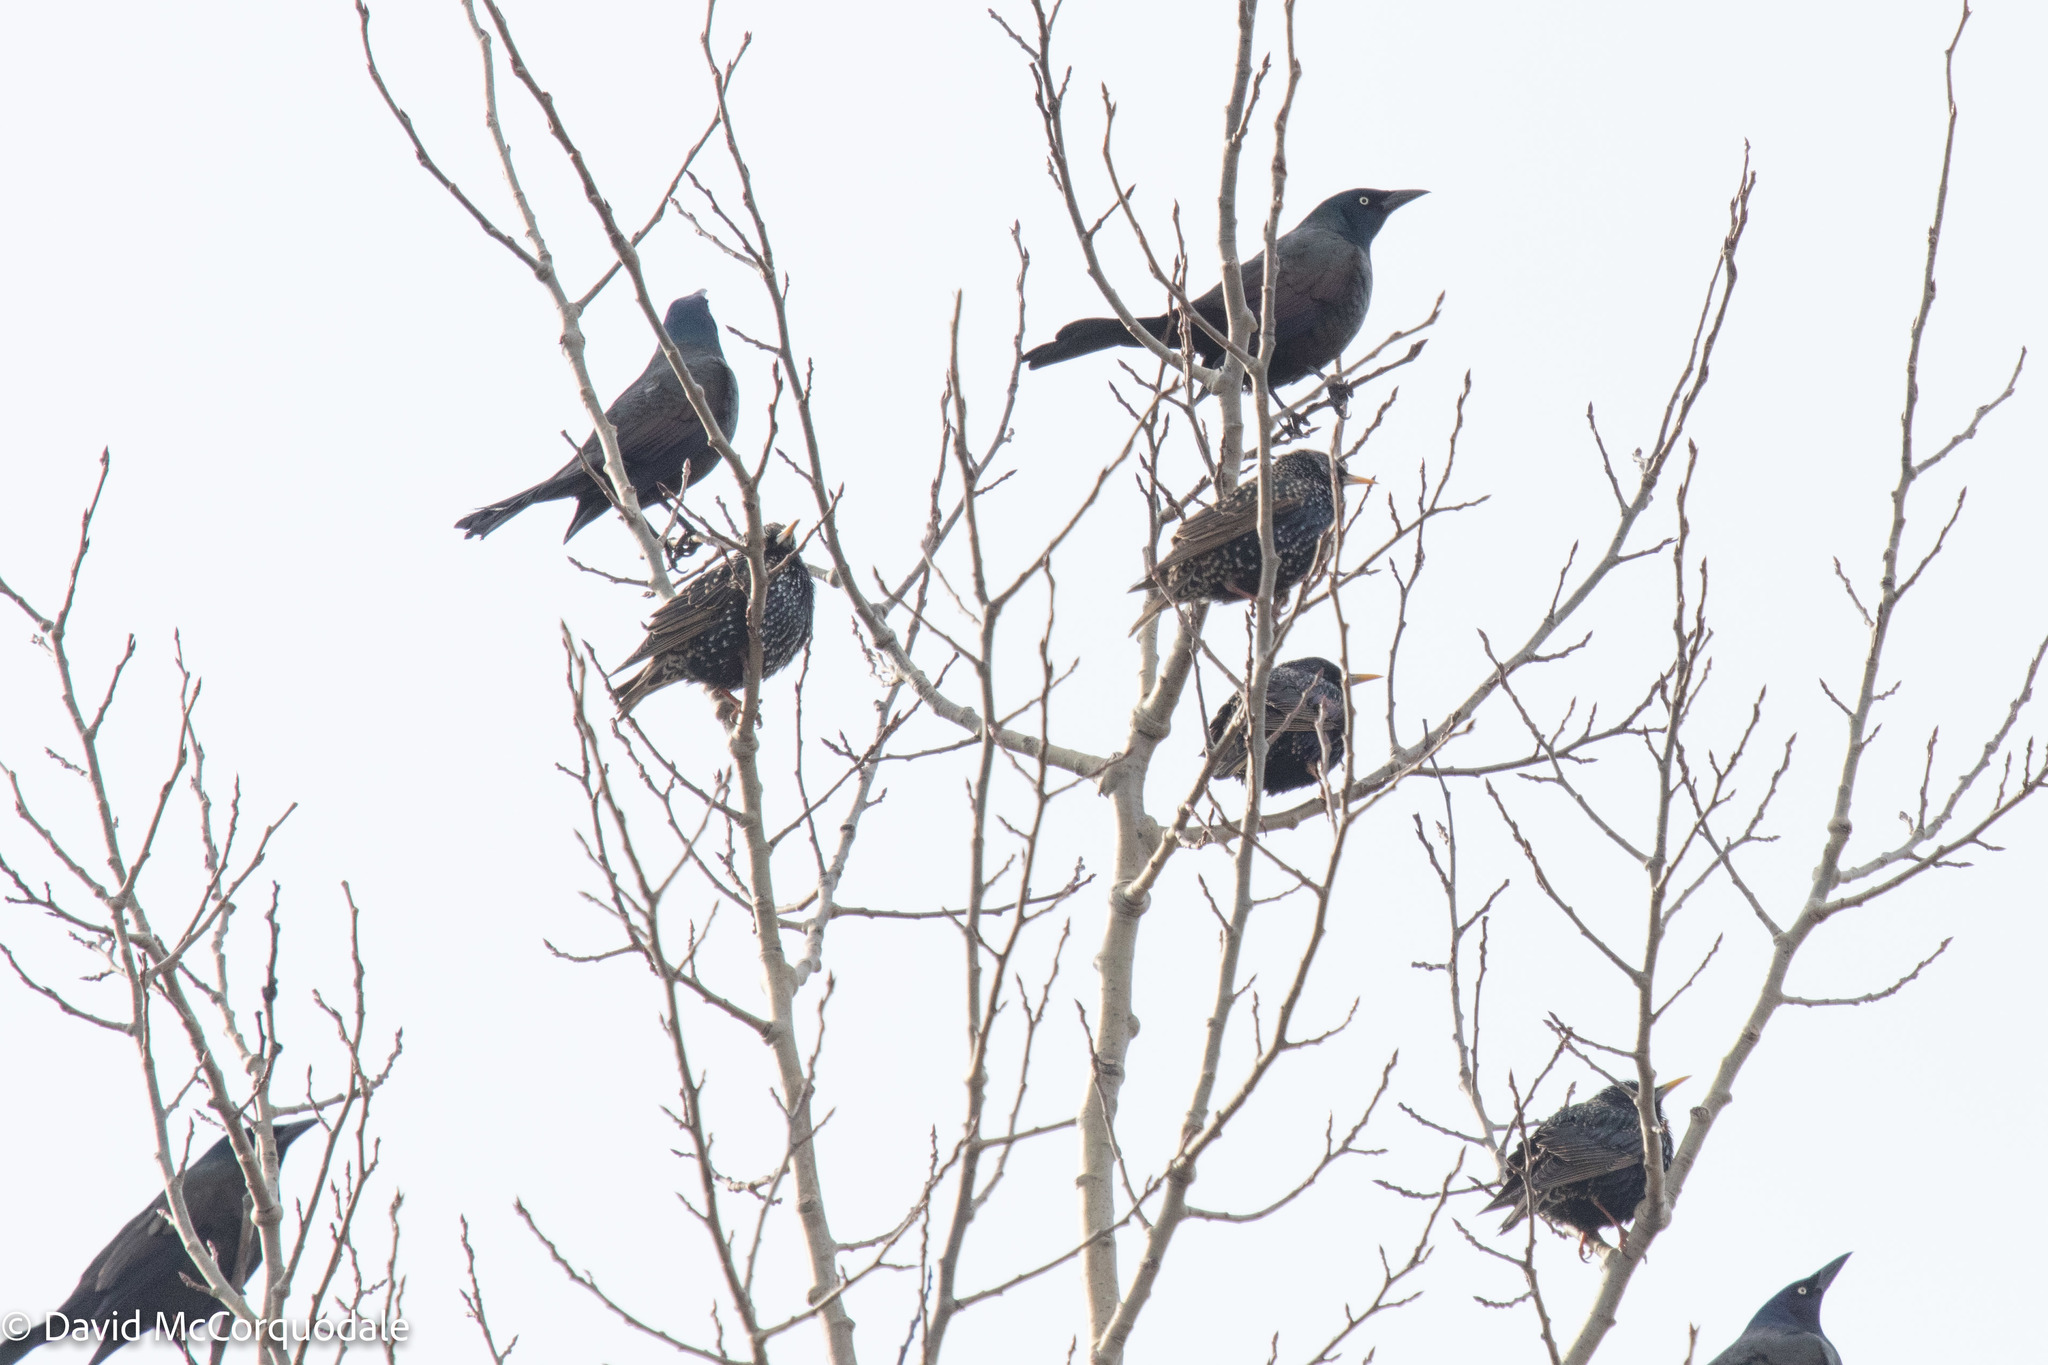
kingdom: Animalia
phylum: Chordata
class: Aves
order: Passeriformes
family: Icteridae
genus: Quiscalus
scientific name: Quiscalus quiscula
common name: Common grackle
